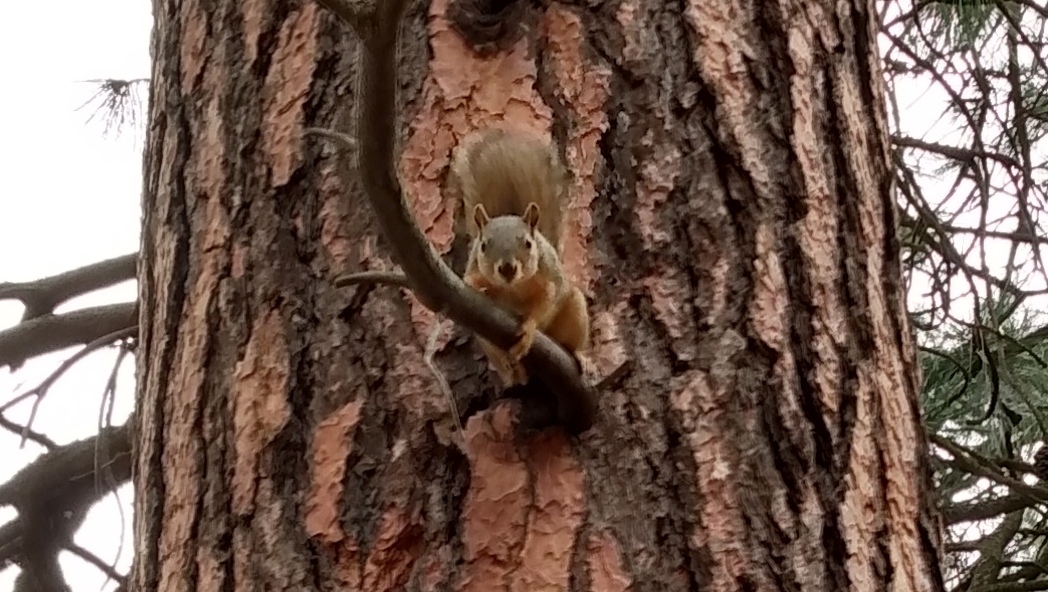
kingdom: Animalia
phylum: Chordata
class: Mammalia
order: Rodentia
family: Sciuridae
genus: Sciurus
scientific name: Sciurus niger
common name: Fox squirrel
